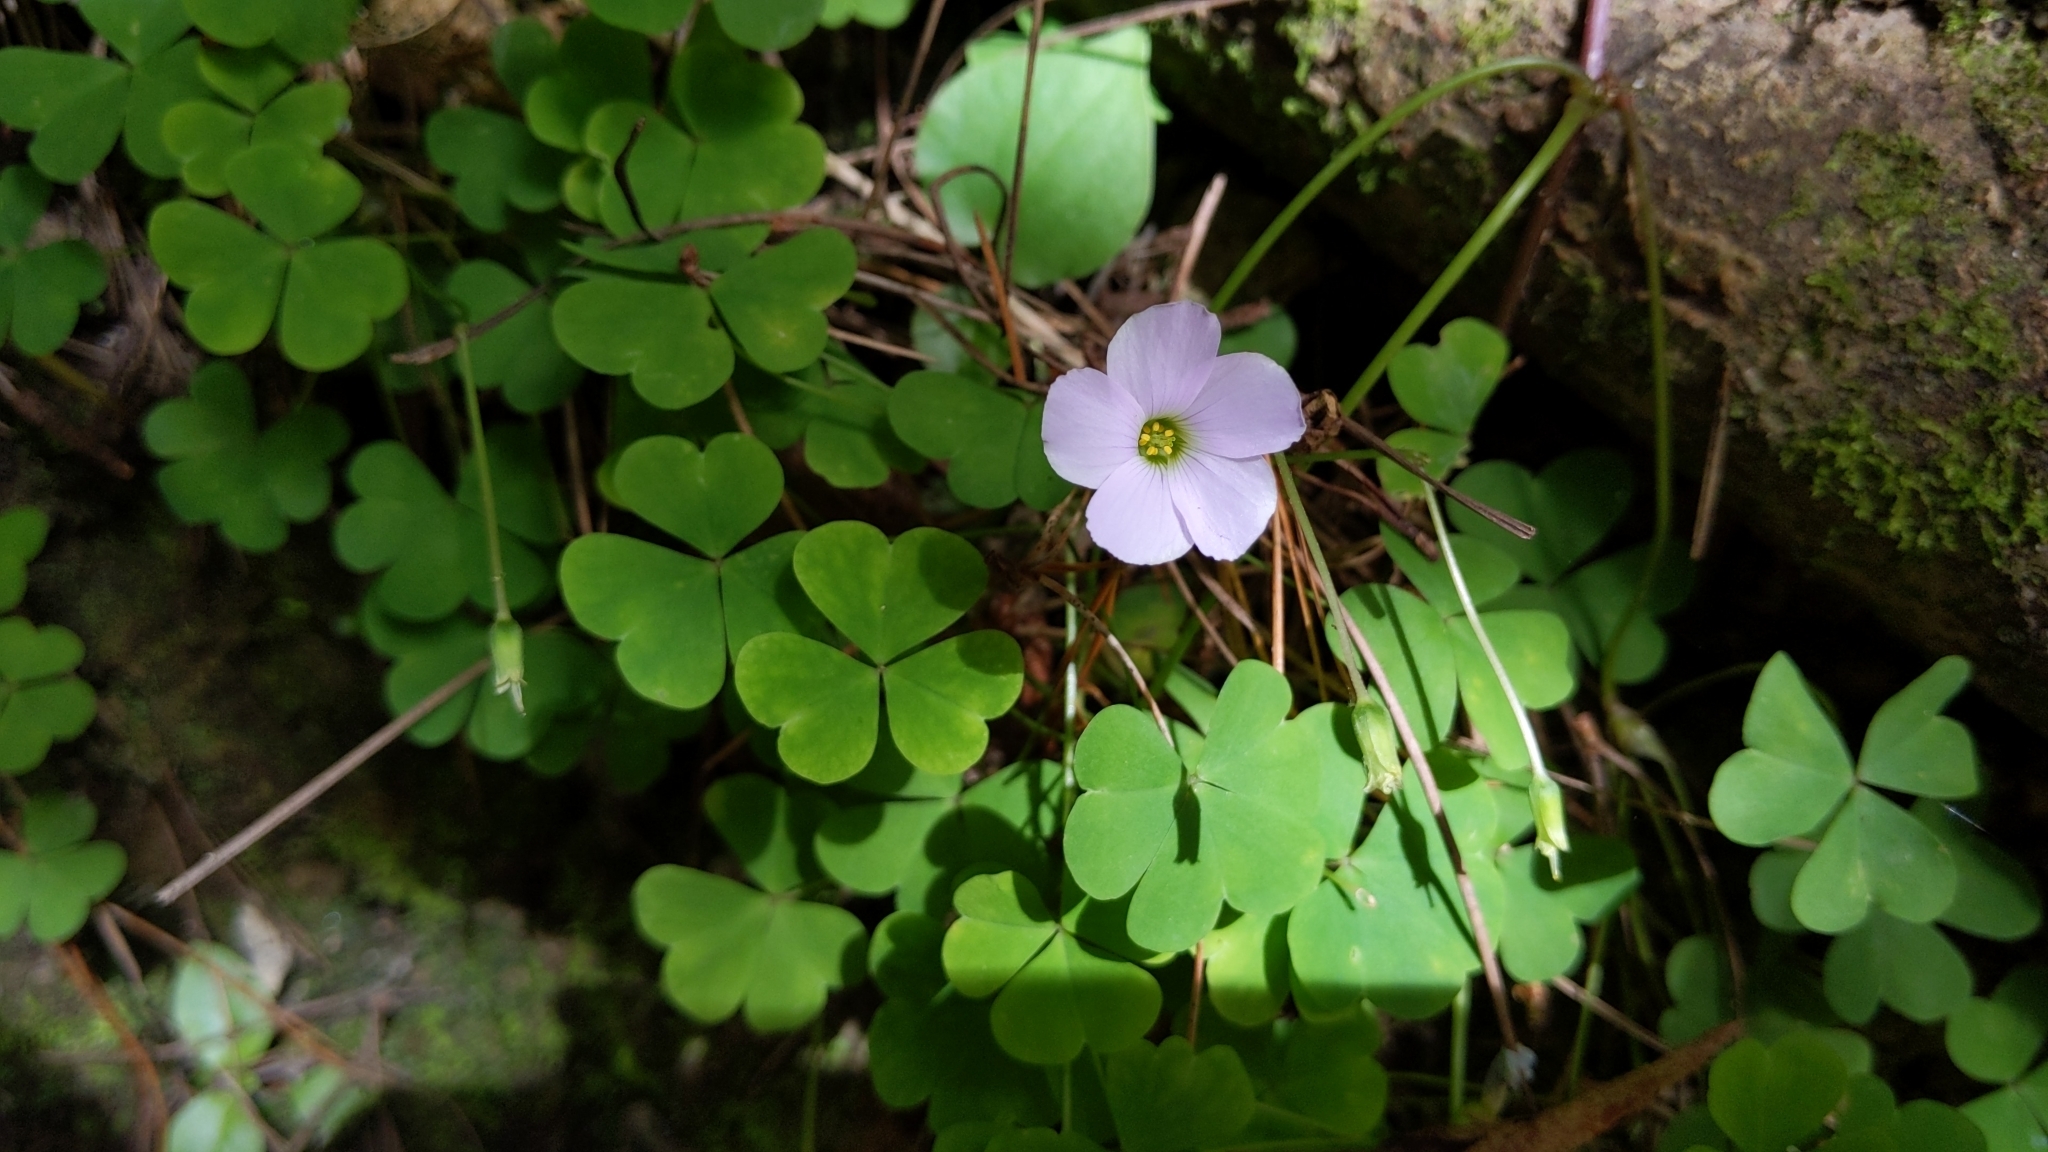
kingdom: Plantae
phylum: Tracheophyta
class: Magnoliopsida
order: Oxalidales
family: Oxalidaceae
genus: Oxalis
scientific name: Oxalis incarnata
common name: Pale pink-sorrel
